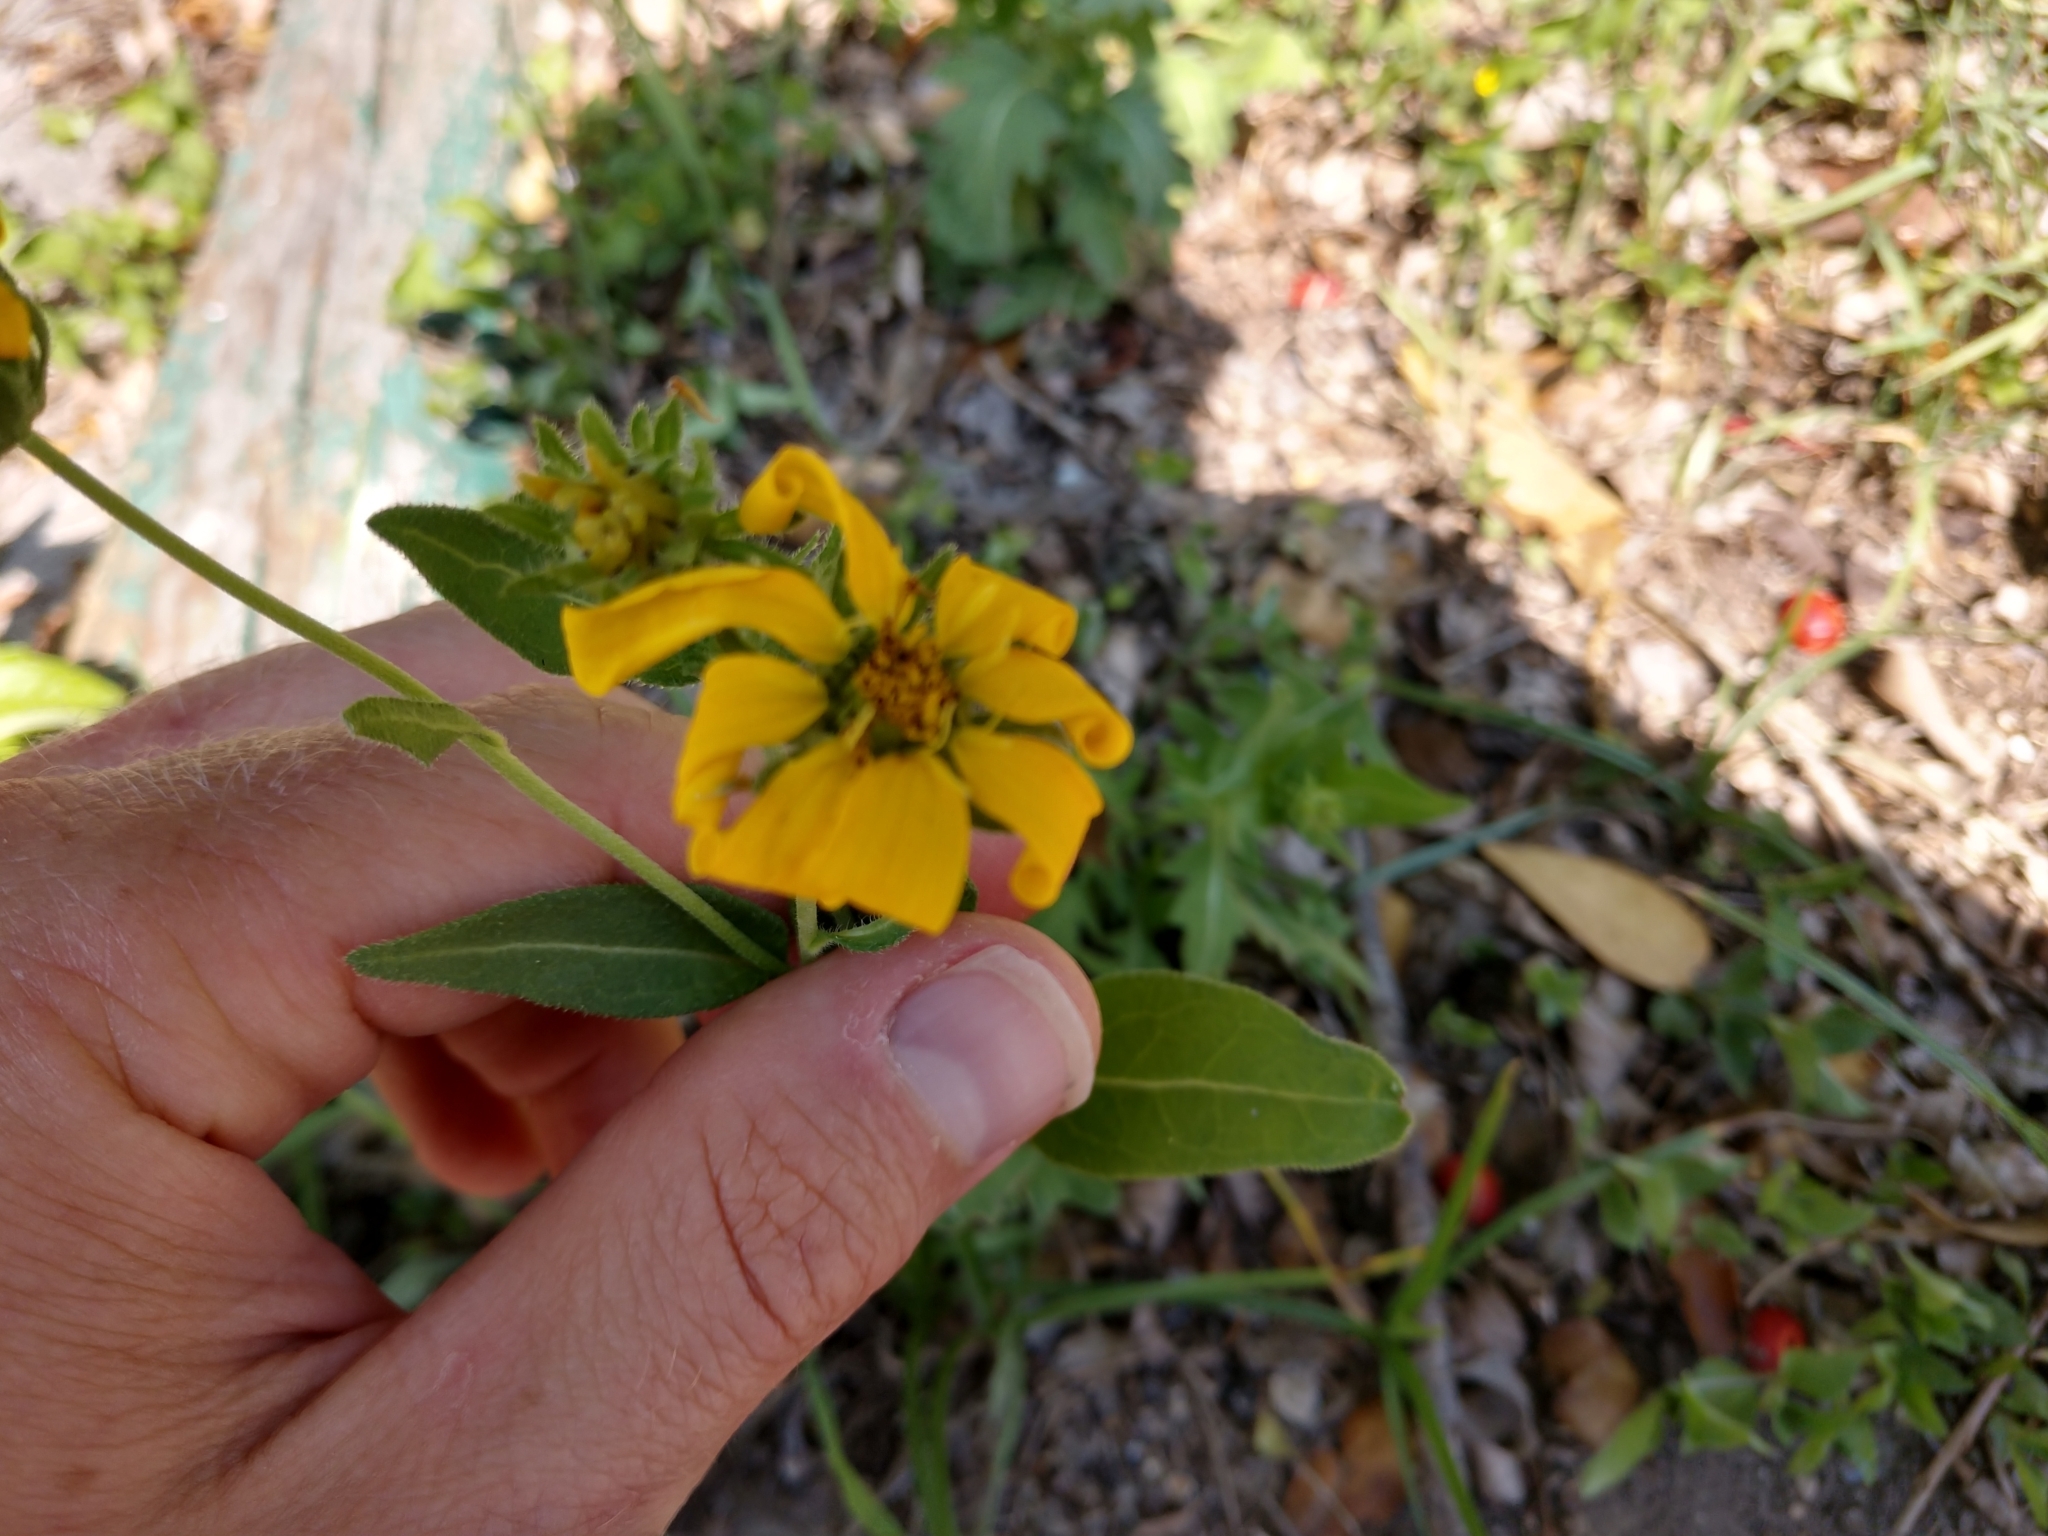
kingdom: Plantae
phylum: Tracheophyta
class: Magnoliopsida
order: Asterales
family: Asteraceae
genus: Engelmannia
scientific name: Engelmannia peristenia
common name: Engelmann's daisy
